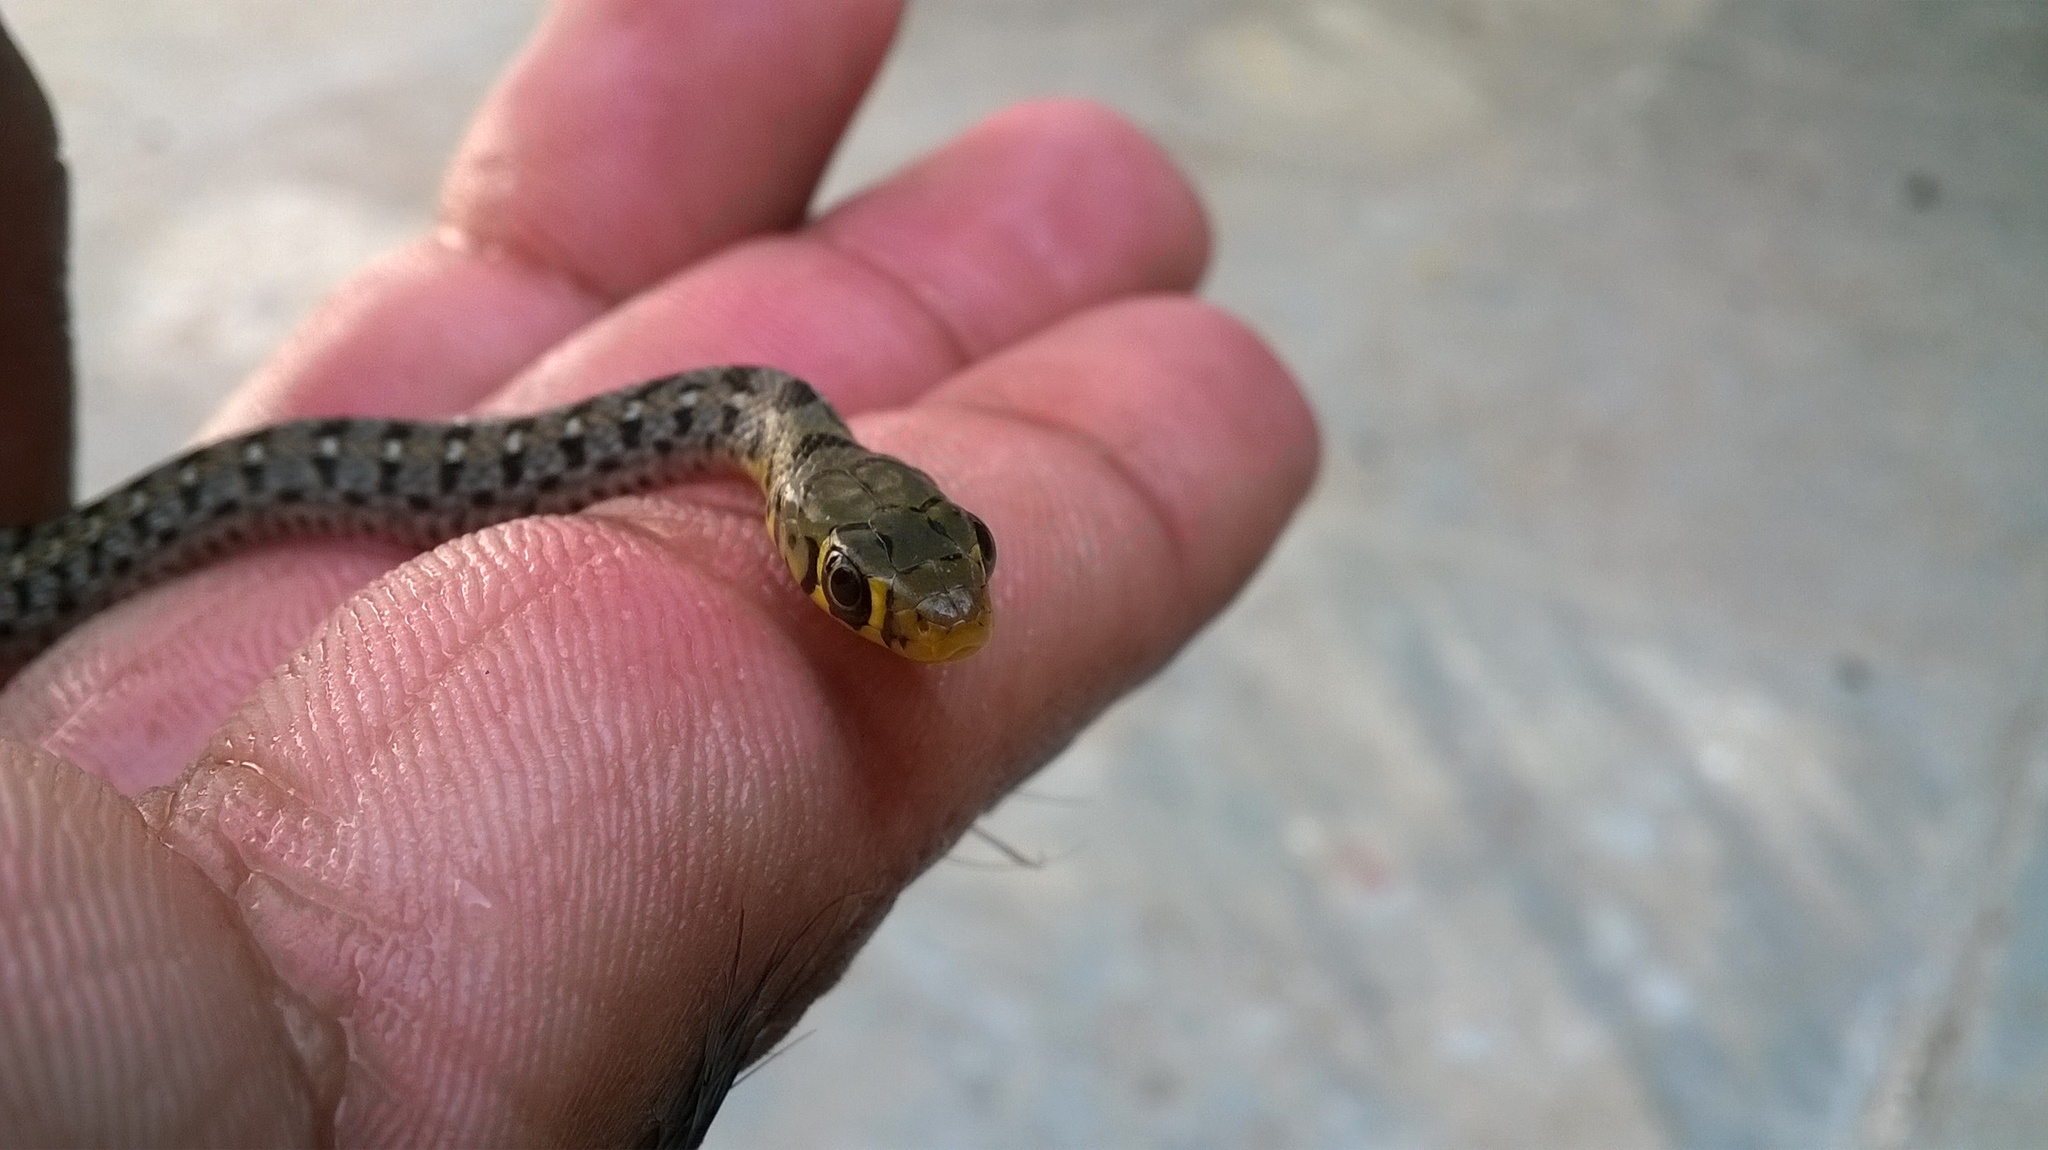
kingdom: Animalia
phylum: Chordata
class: Squamata
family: Colubridae
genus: Amphiesma
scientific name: Amphiesma stolatum
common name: Buff striped keelback
